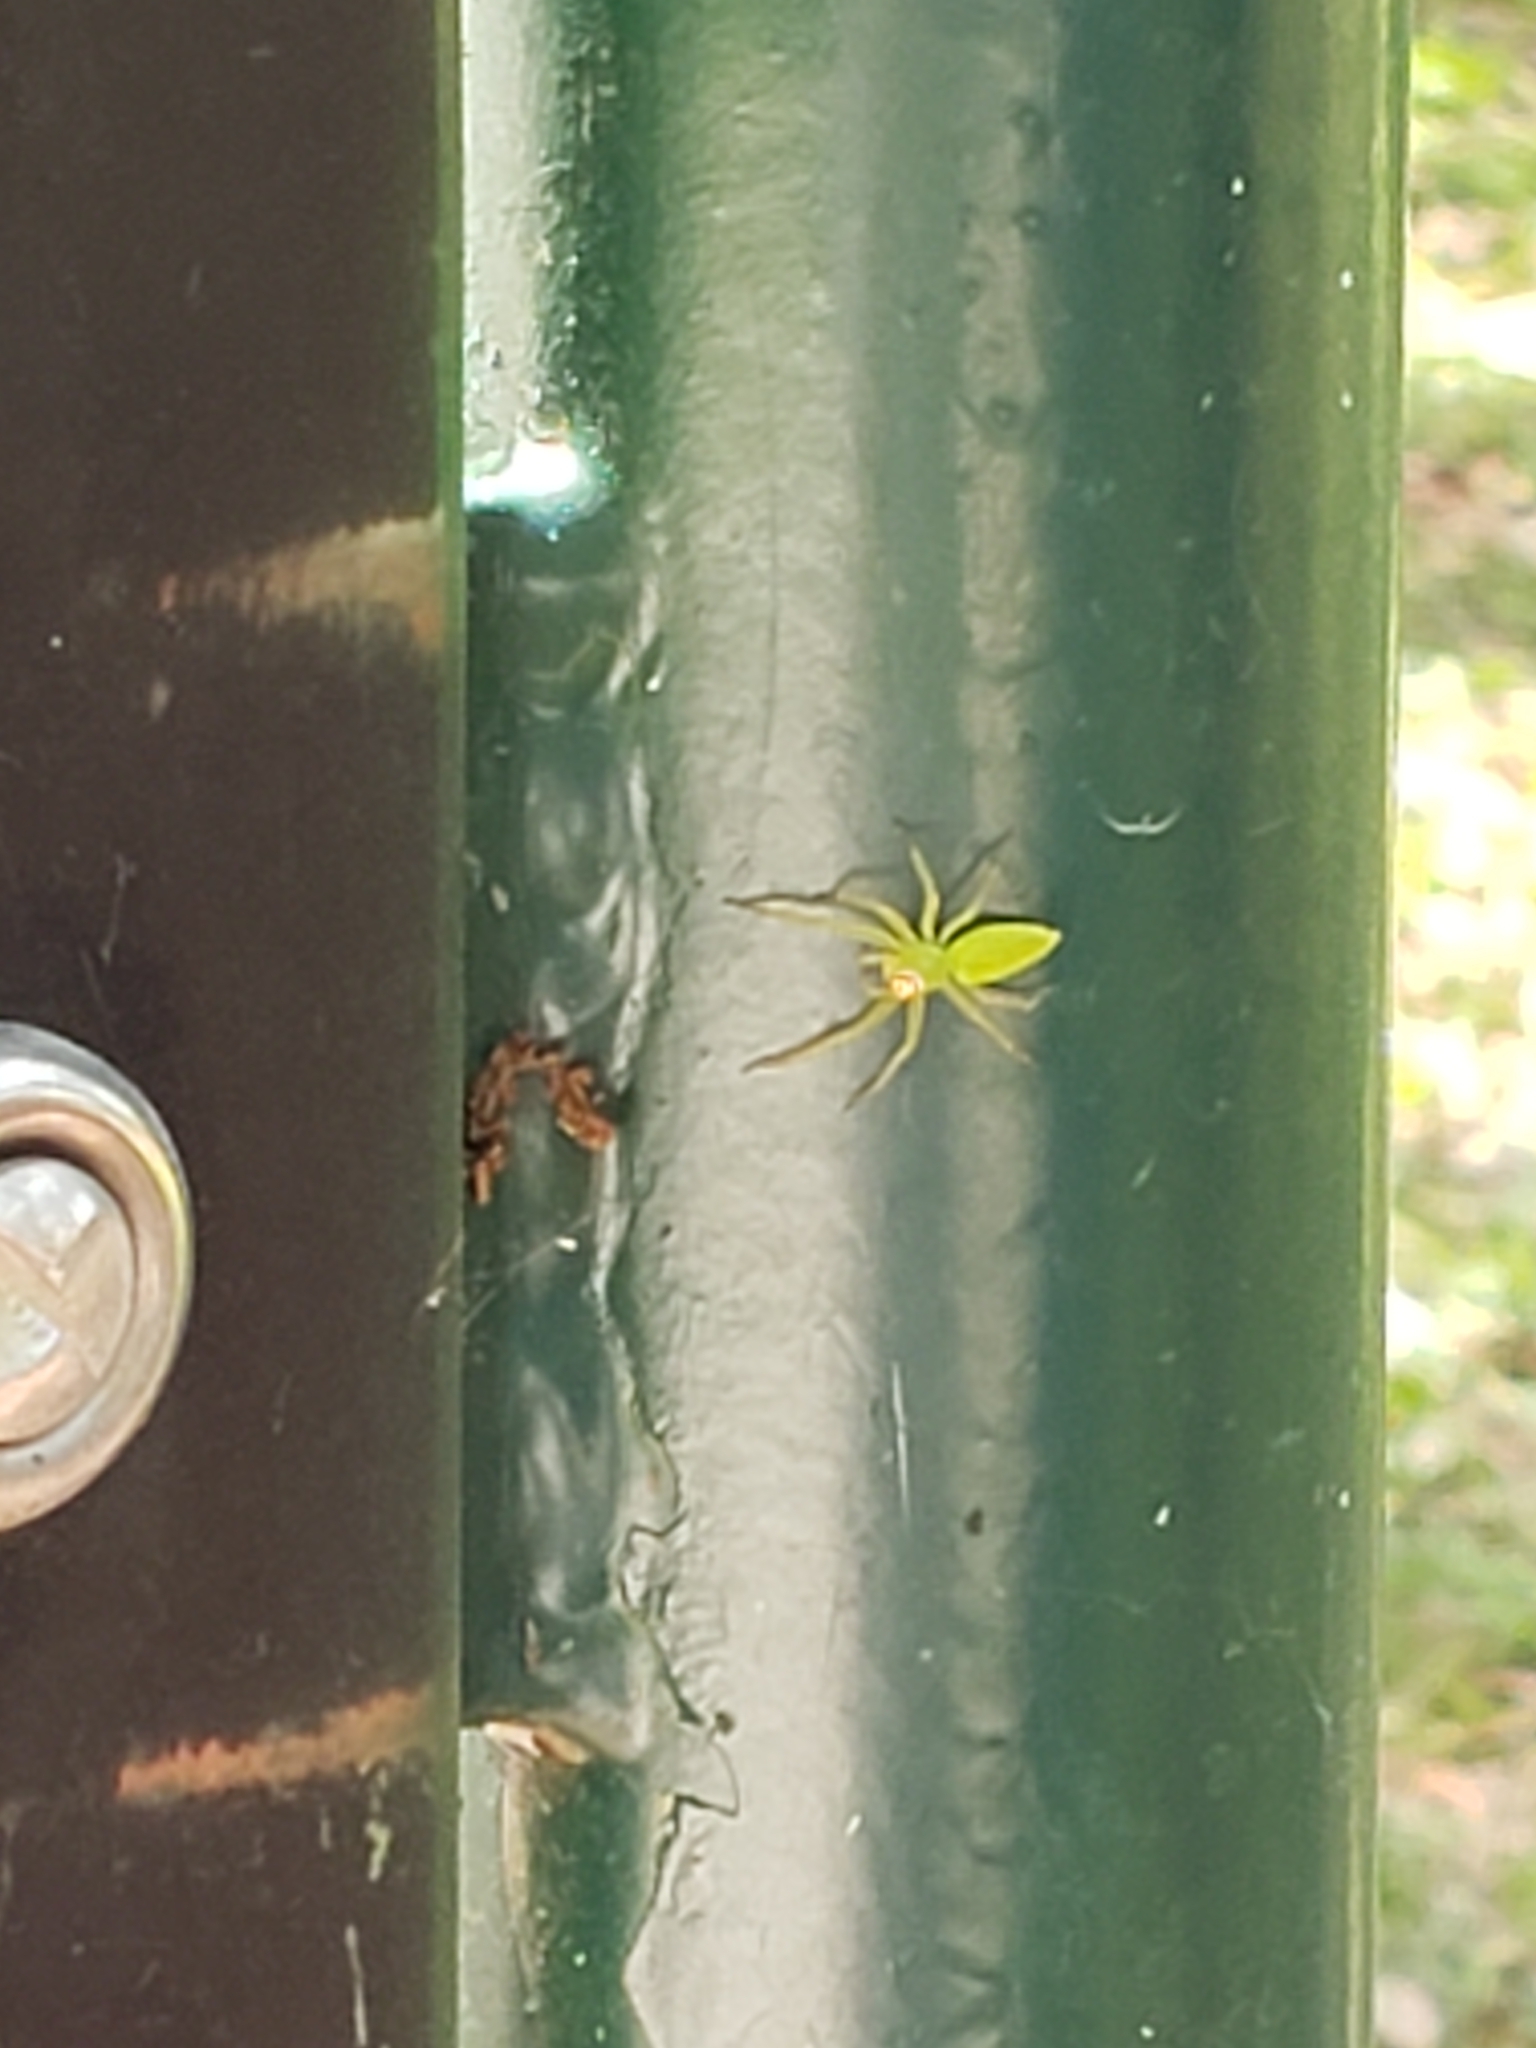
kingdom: Animalia
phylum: Arthropoda
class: Arachnida
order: Araneae
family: Salticidae
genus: Lyssomanes
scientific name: Lyssomanes viridis
